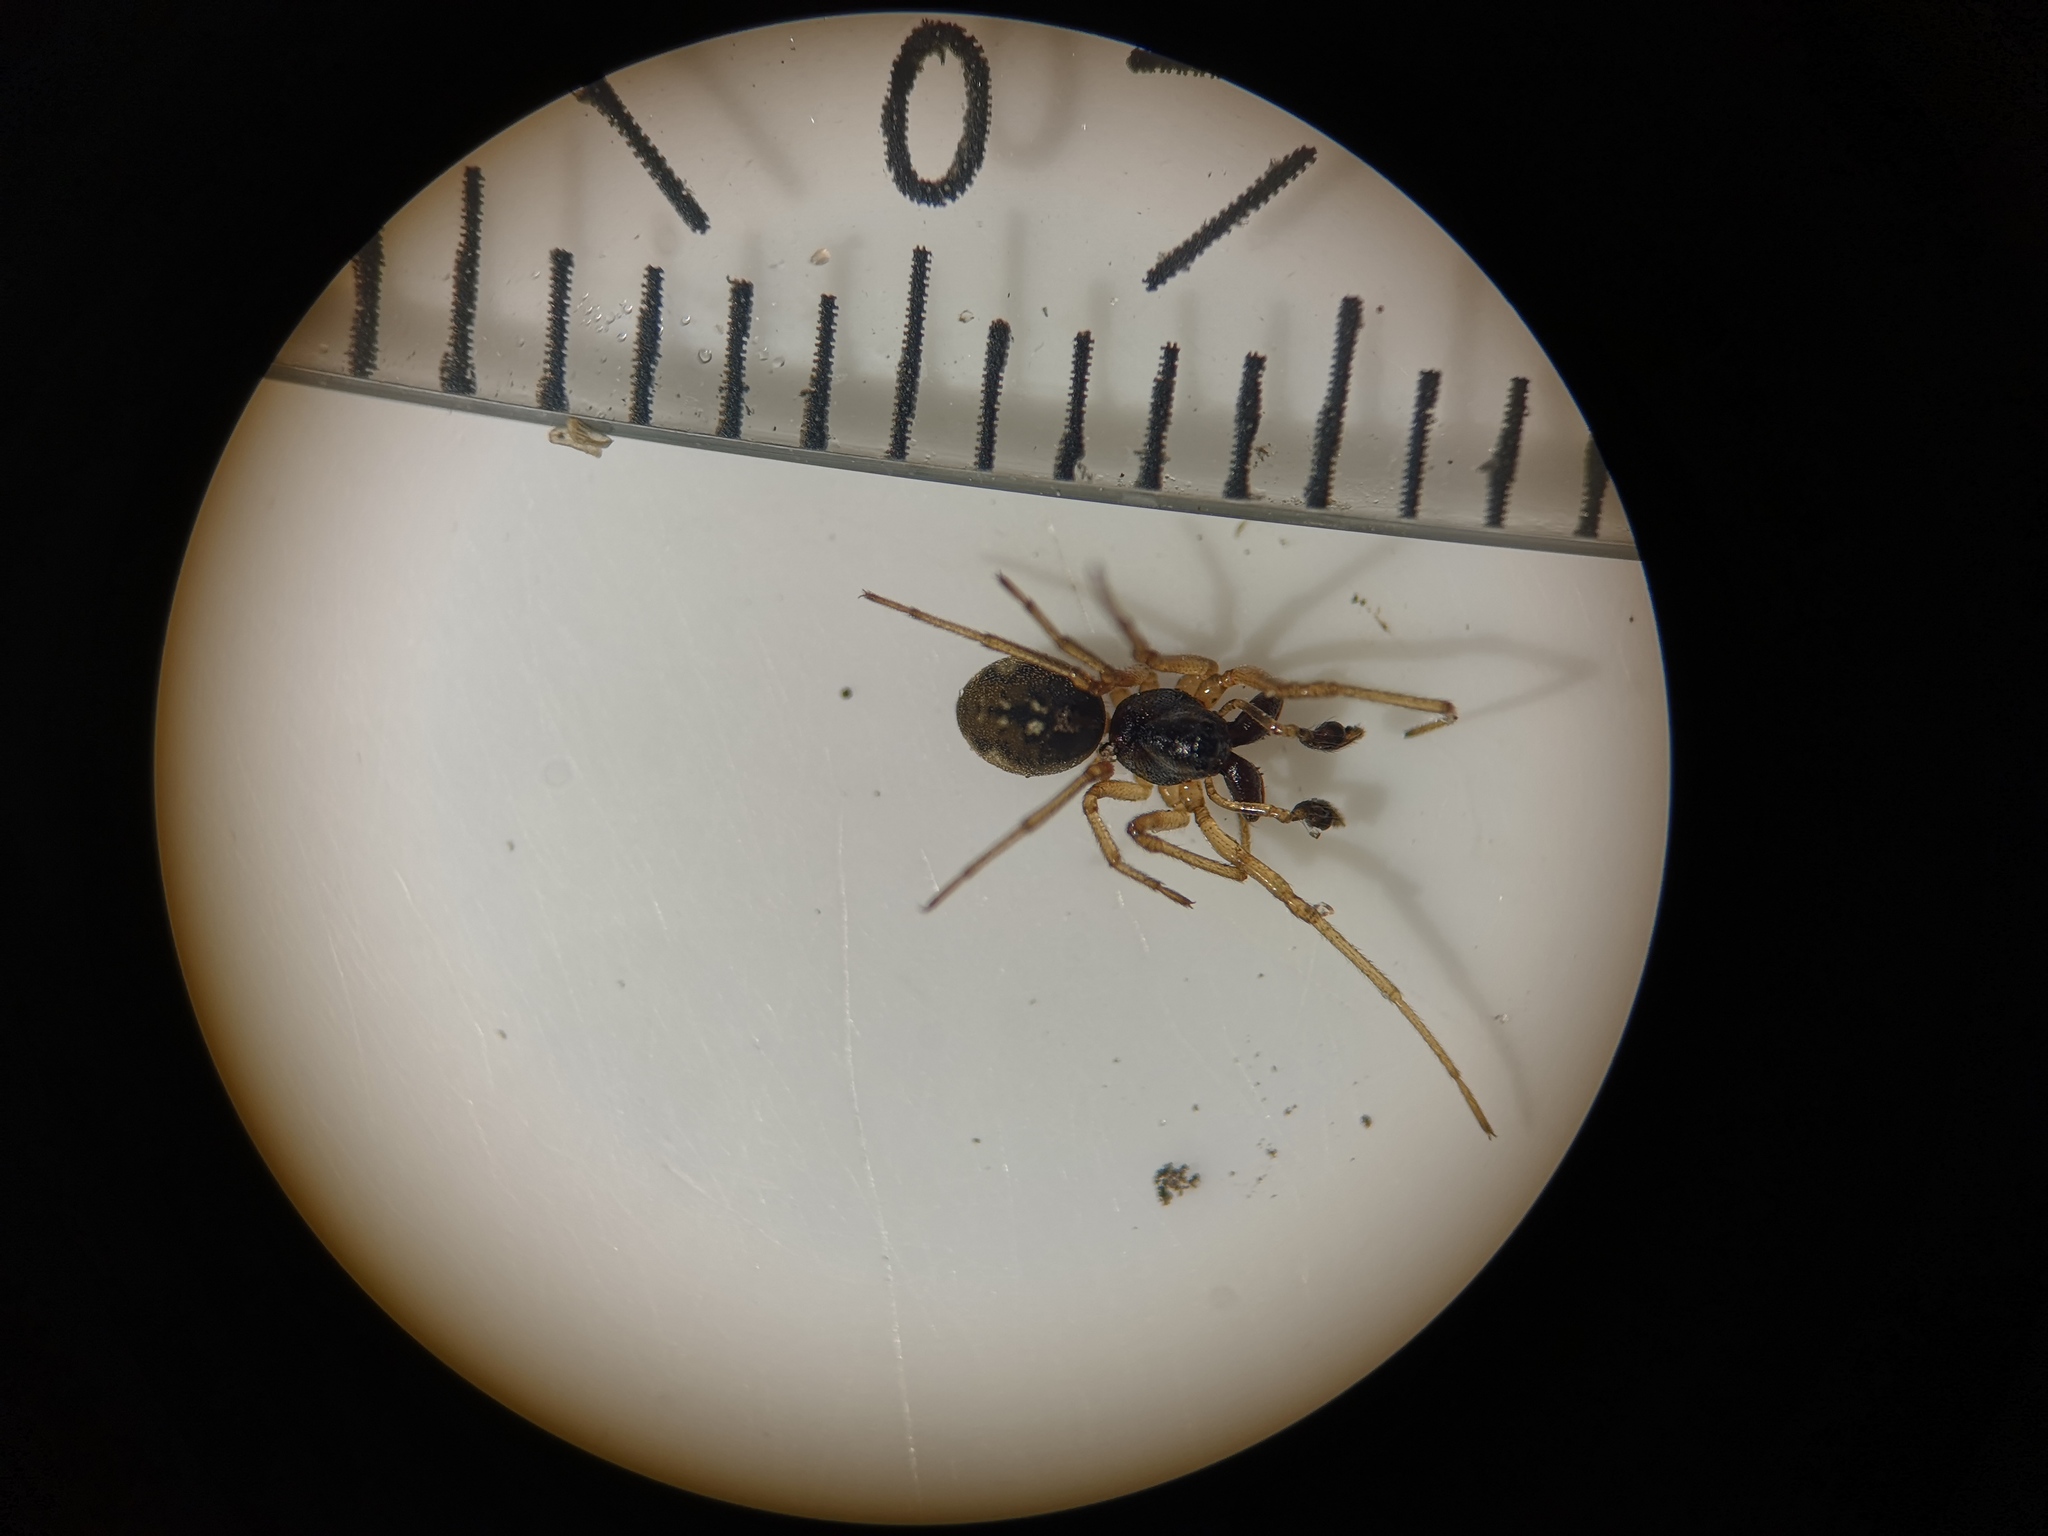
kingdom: Animalia
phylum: Arthropoda
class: Arachnida
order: Araneae
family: Tetragnathidae
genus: Pachygnatha
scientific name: Pachygnatha degeeri
